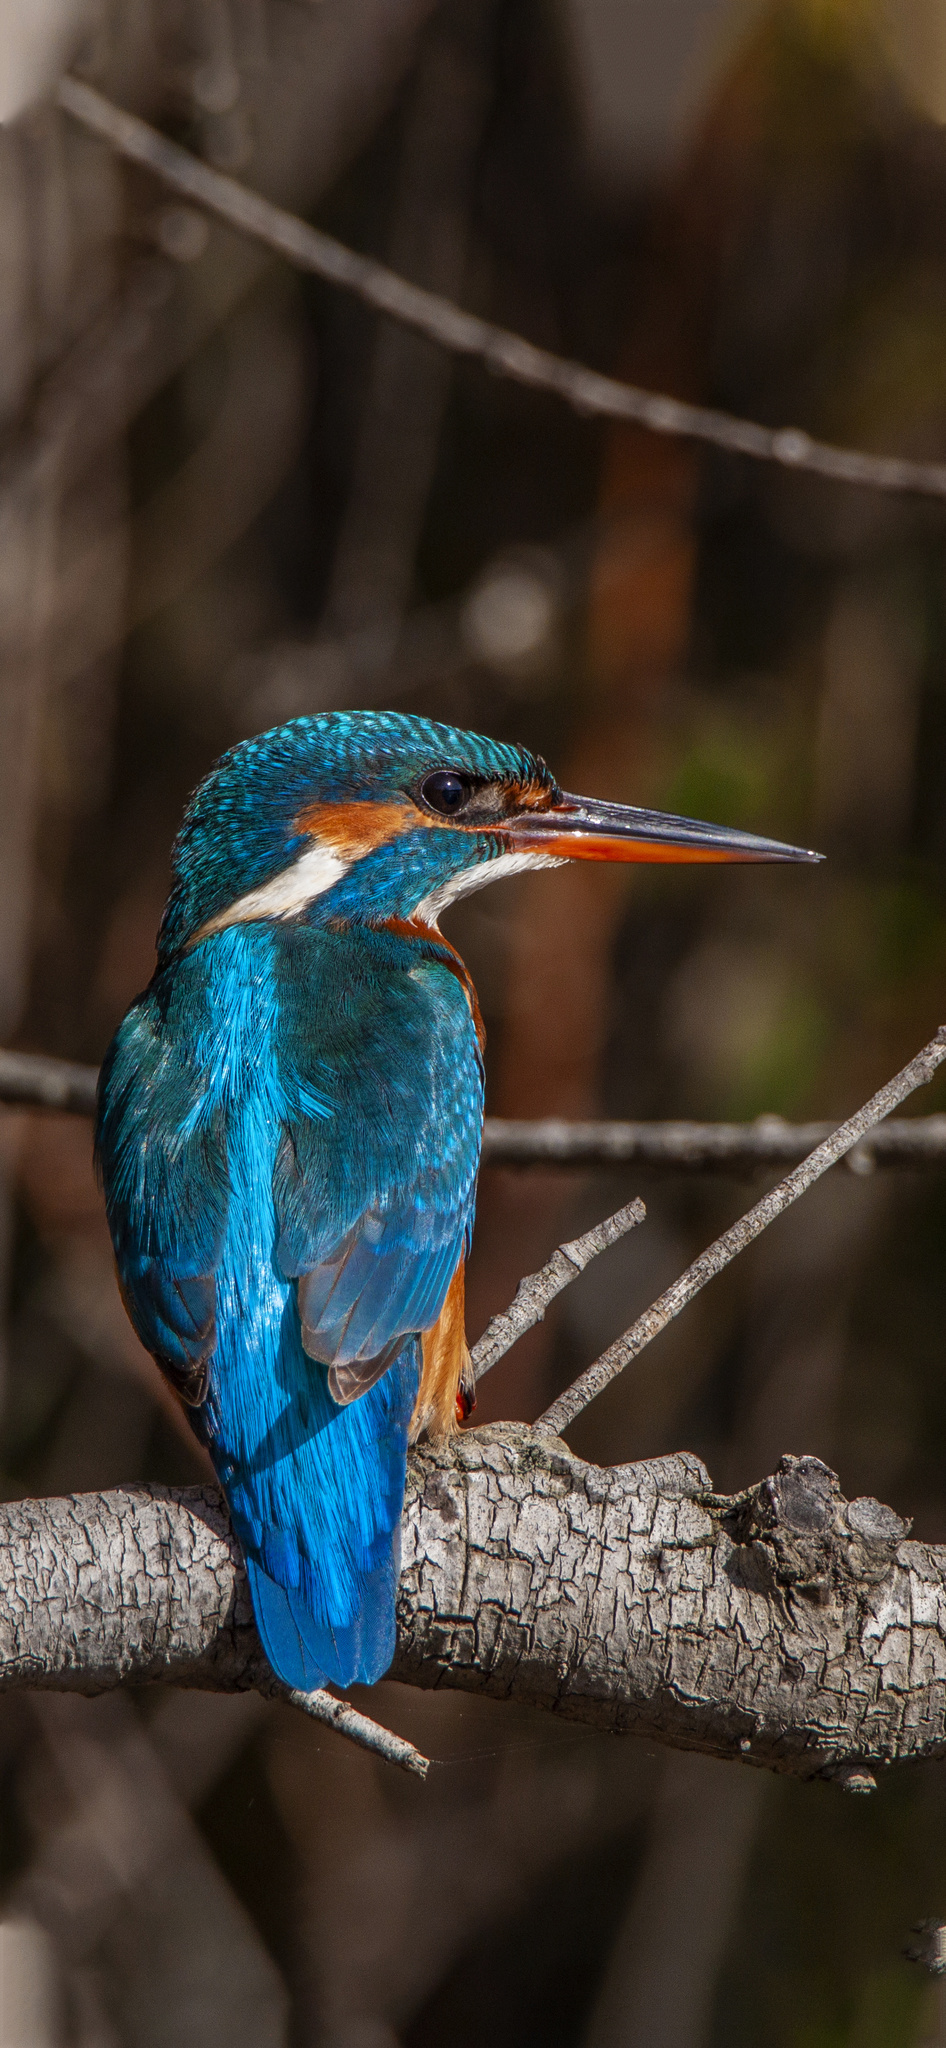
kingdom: Animalia
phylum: Chordata
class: Aves
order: Coraciiformes
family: Alcedinidae
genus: Alcedo
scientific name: Alcedo atthis
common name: Common kingfisher
